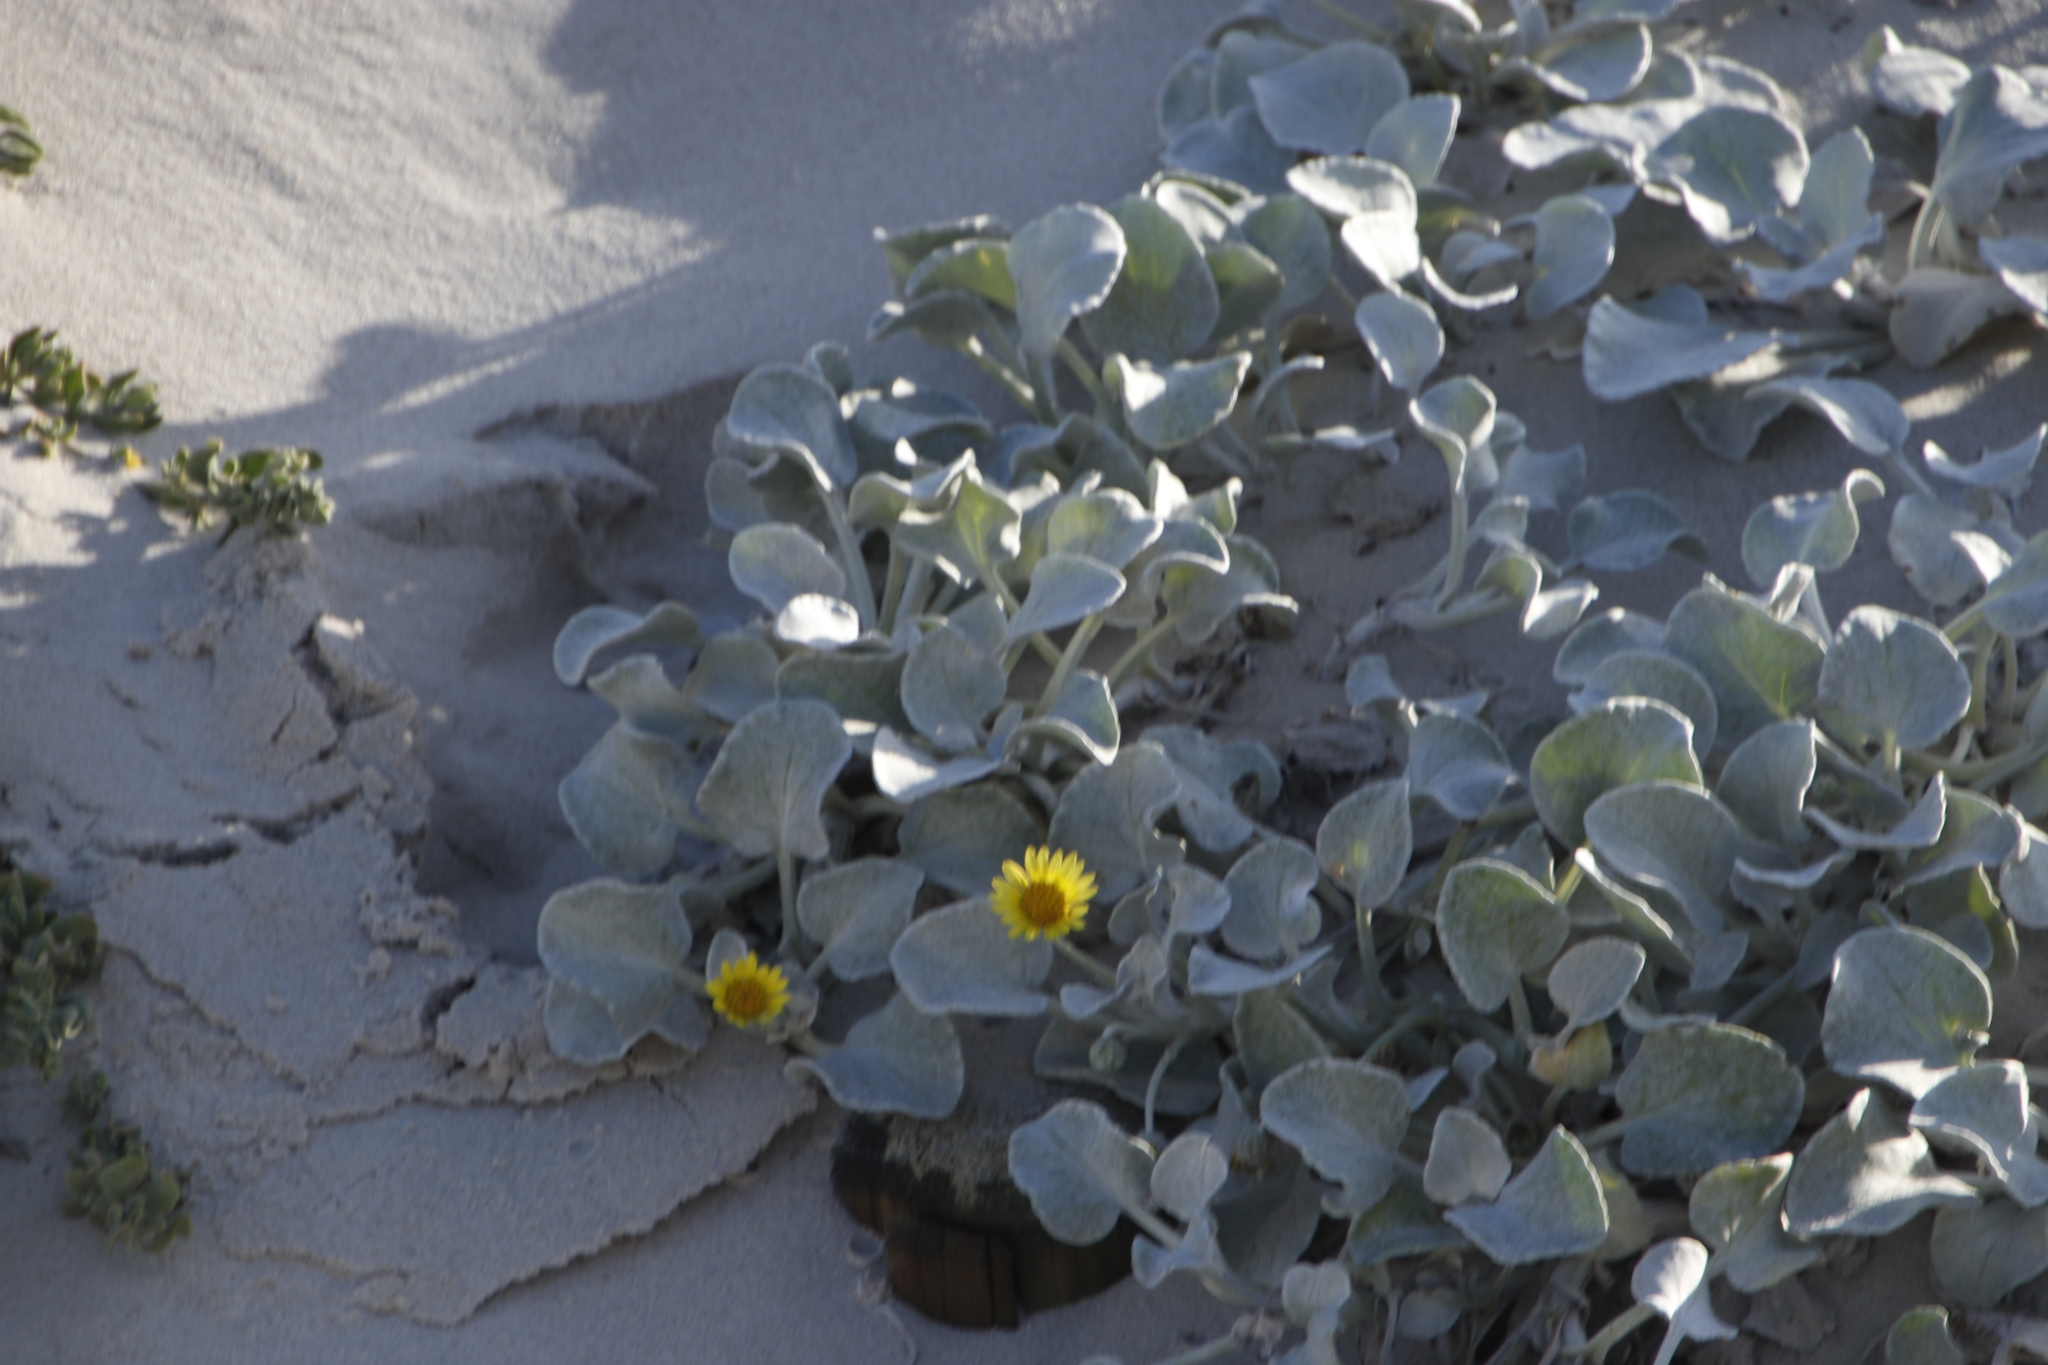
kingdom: Plantae
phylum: Tracheophyta
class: Magnoliopsida
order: Asterales
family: Asteraceae
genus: Arctotheca
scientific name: Arctotheca populifolia
